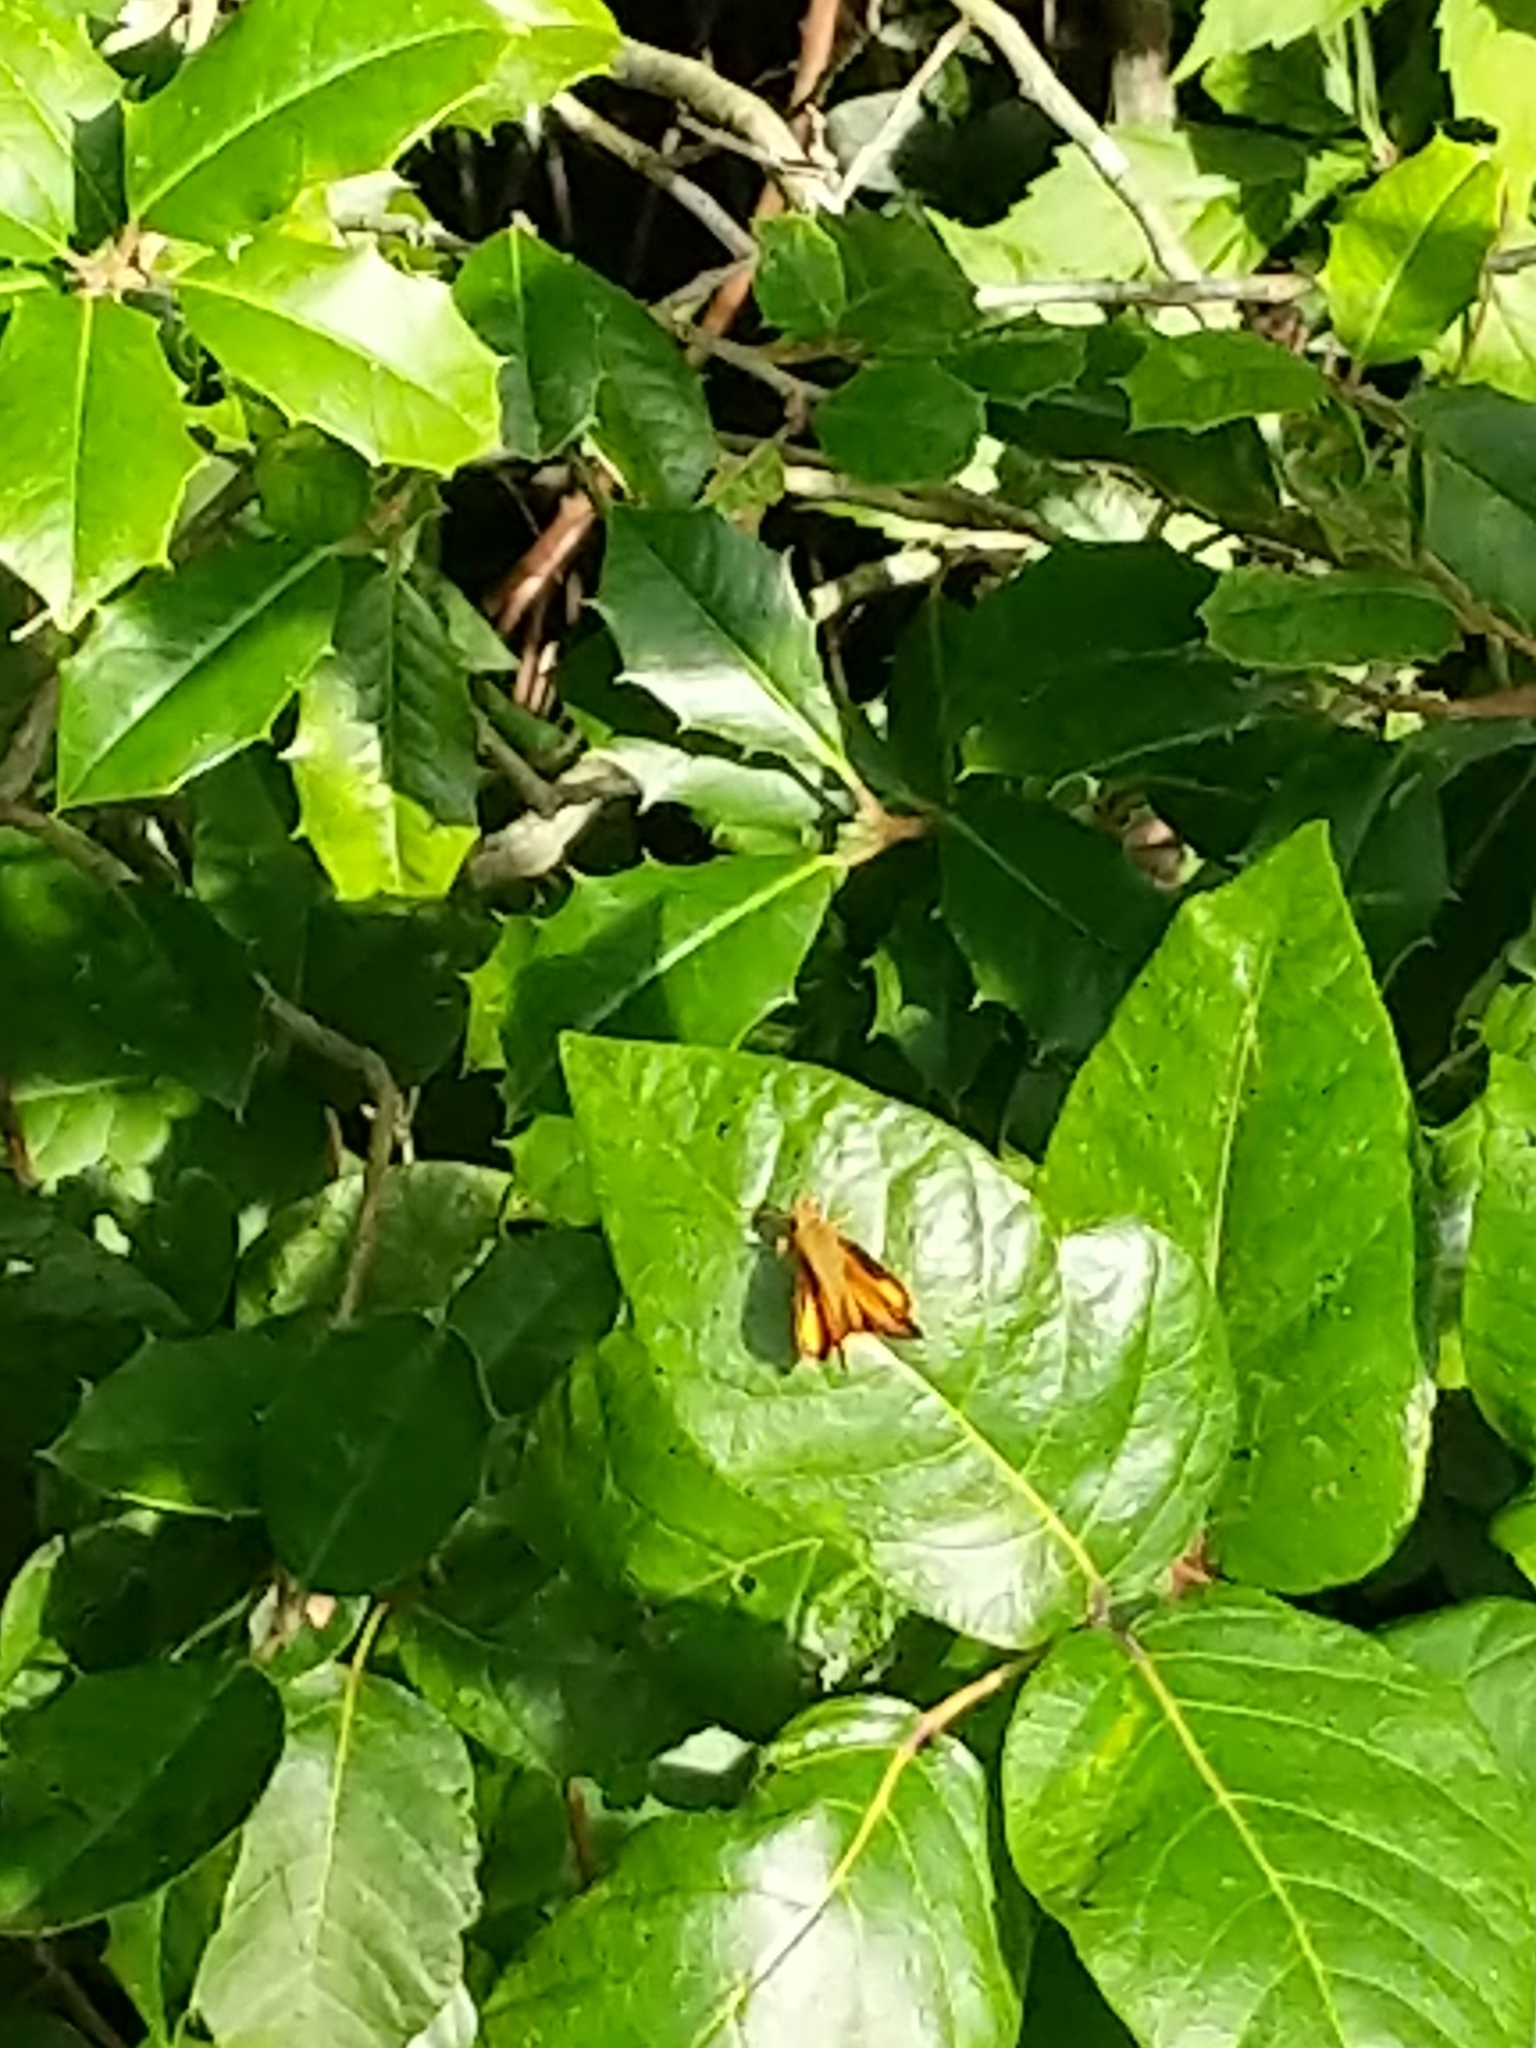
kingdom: Animalia
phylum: Arthropoda
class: Insecta
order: Lepidoptera
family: Hesperiidae
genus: Lon
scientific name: Lon zabulon
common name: Zabulon skipper
